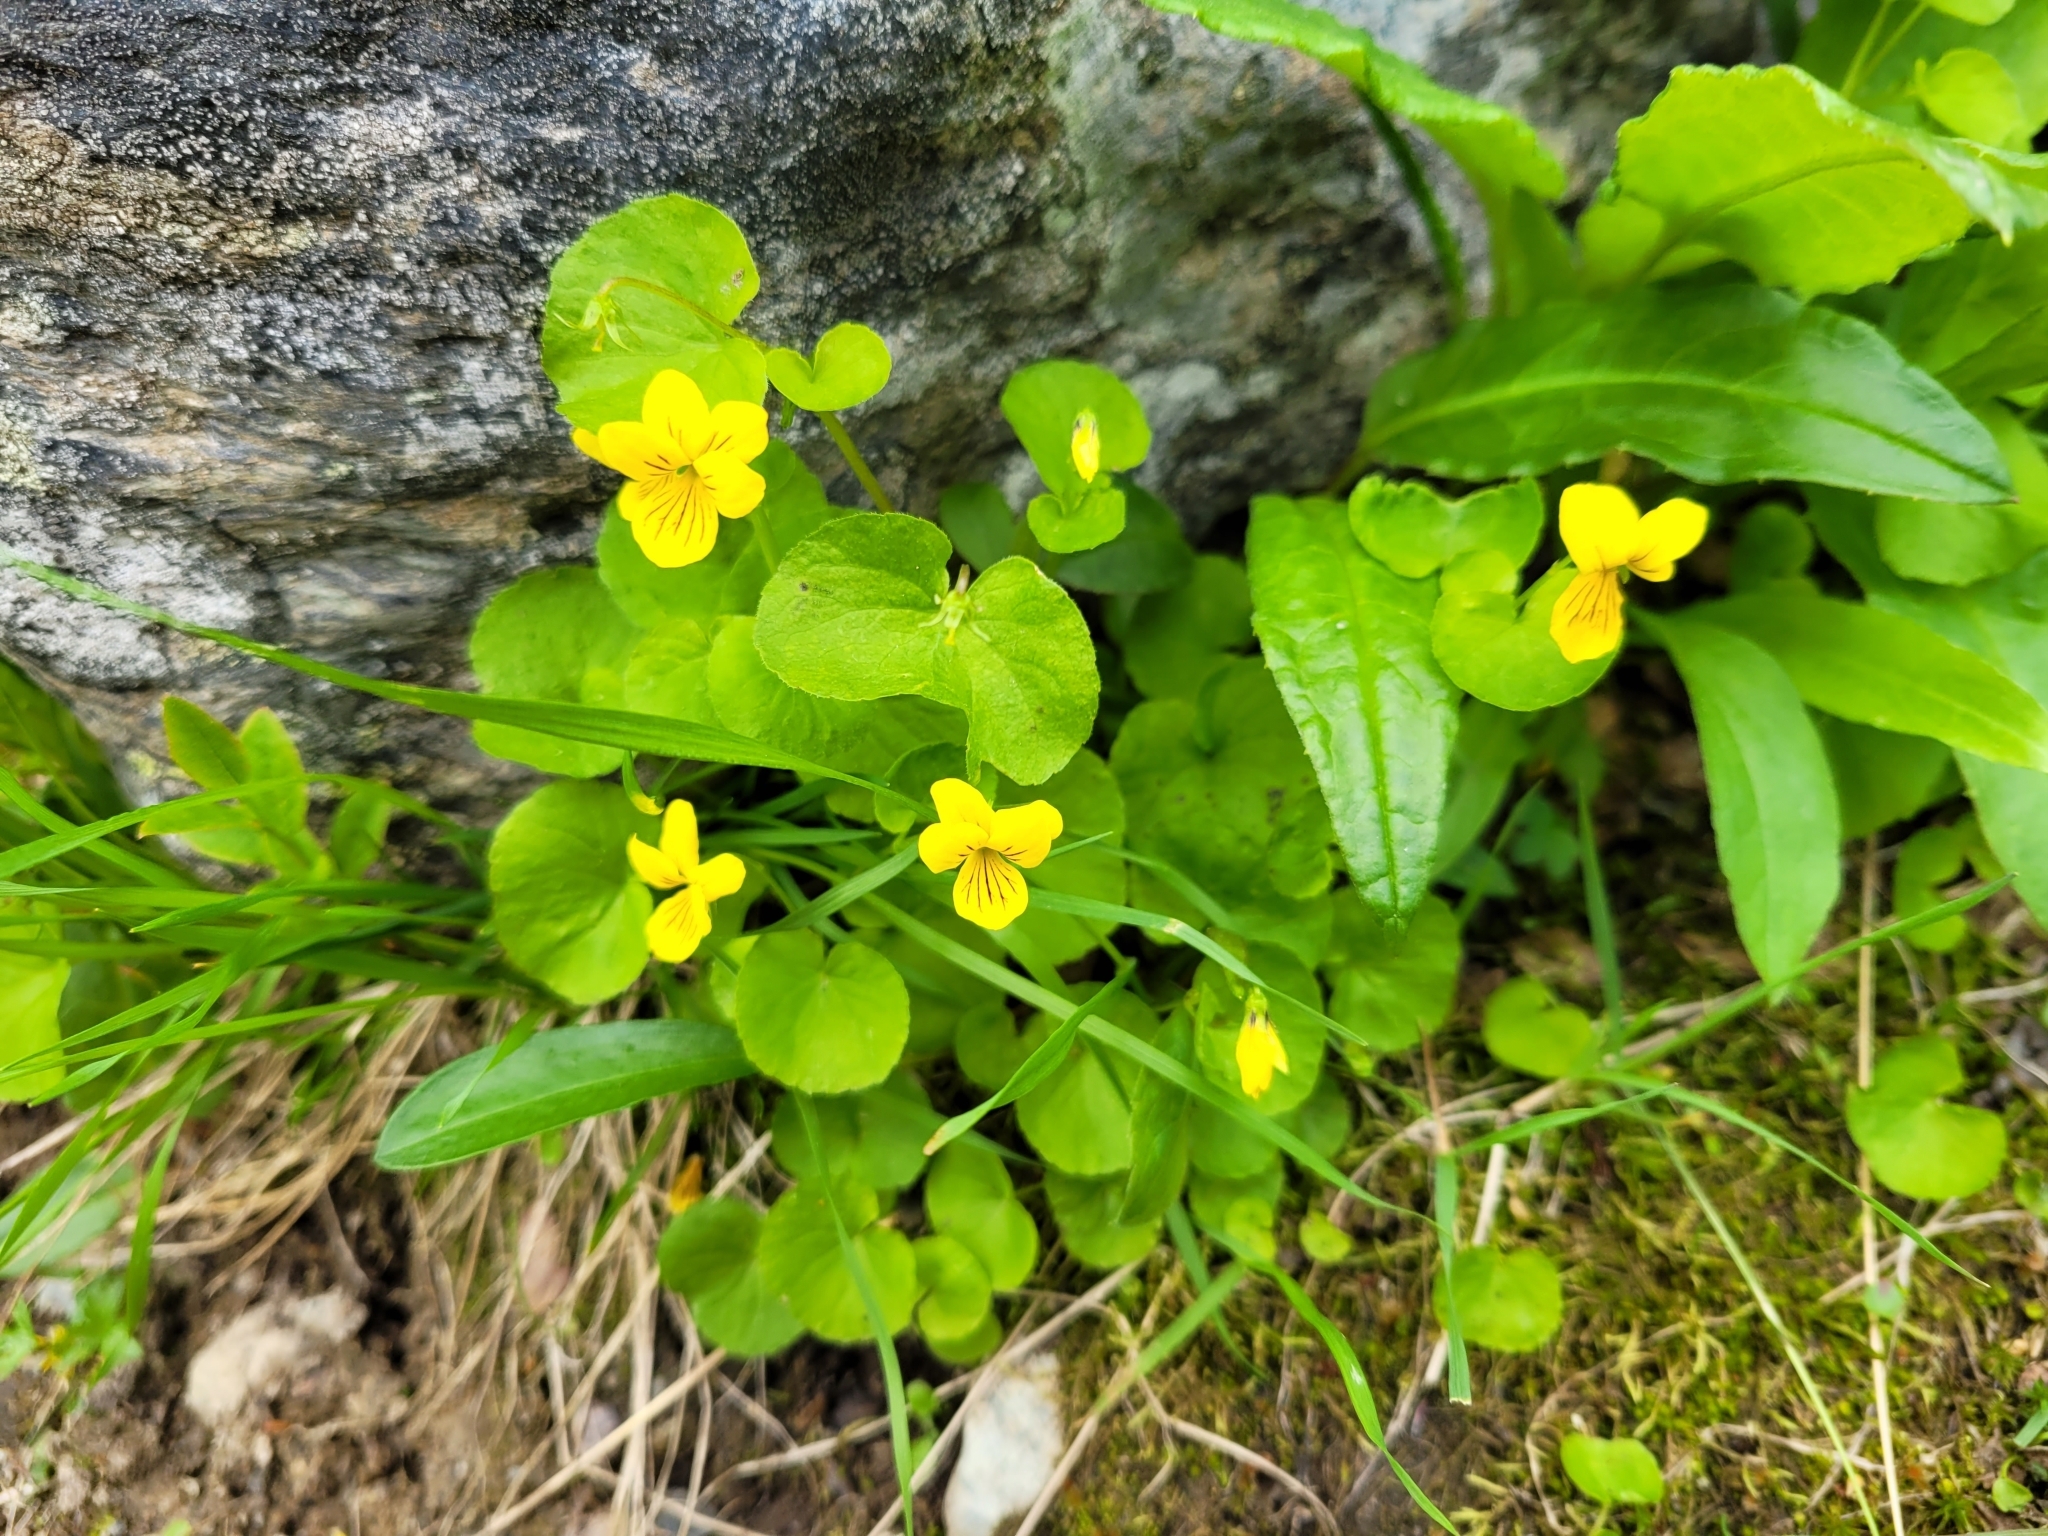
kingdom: Plantae
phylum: Tracheophyta
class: Magnoliopsida
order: Malpighiales
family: Violaceae
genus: Viola
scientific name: Viola biflora
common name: Alpine yellow violet
